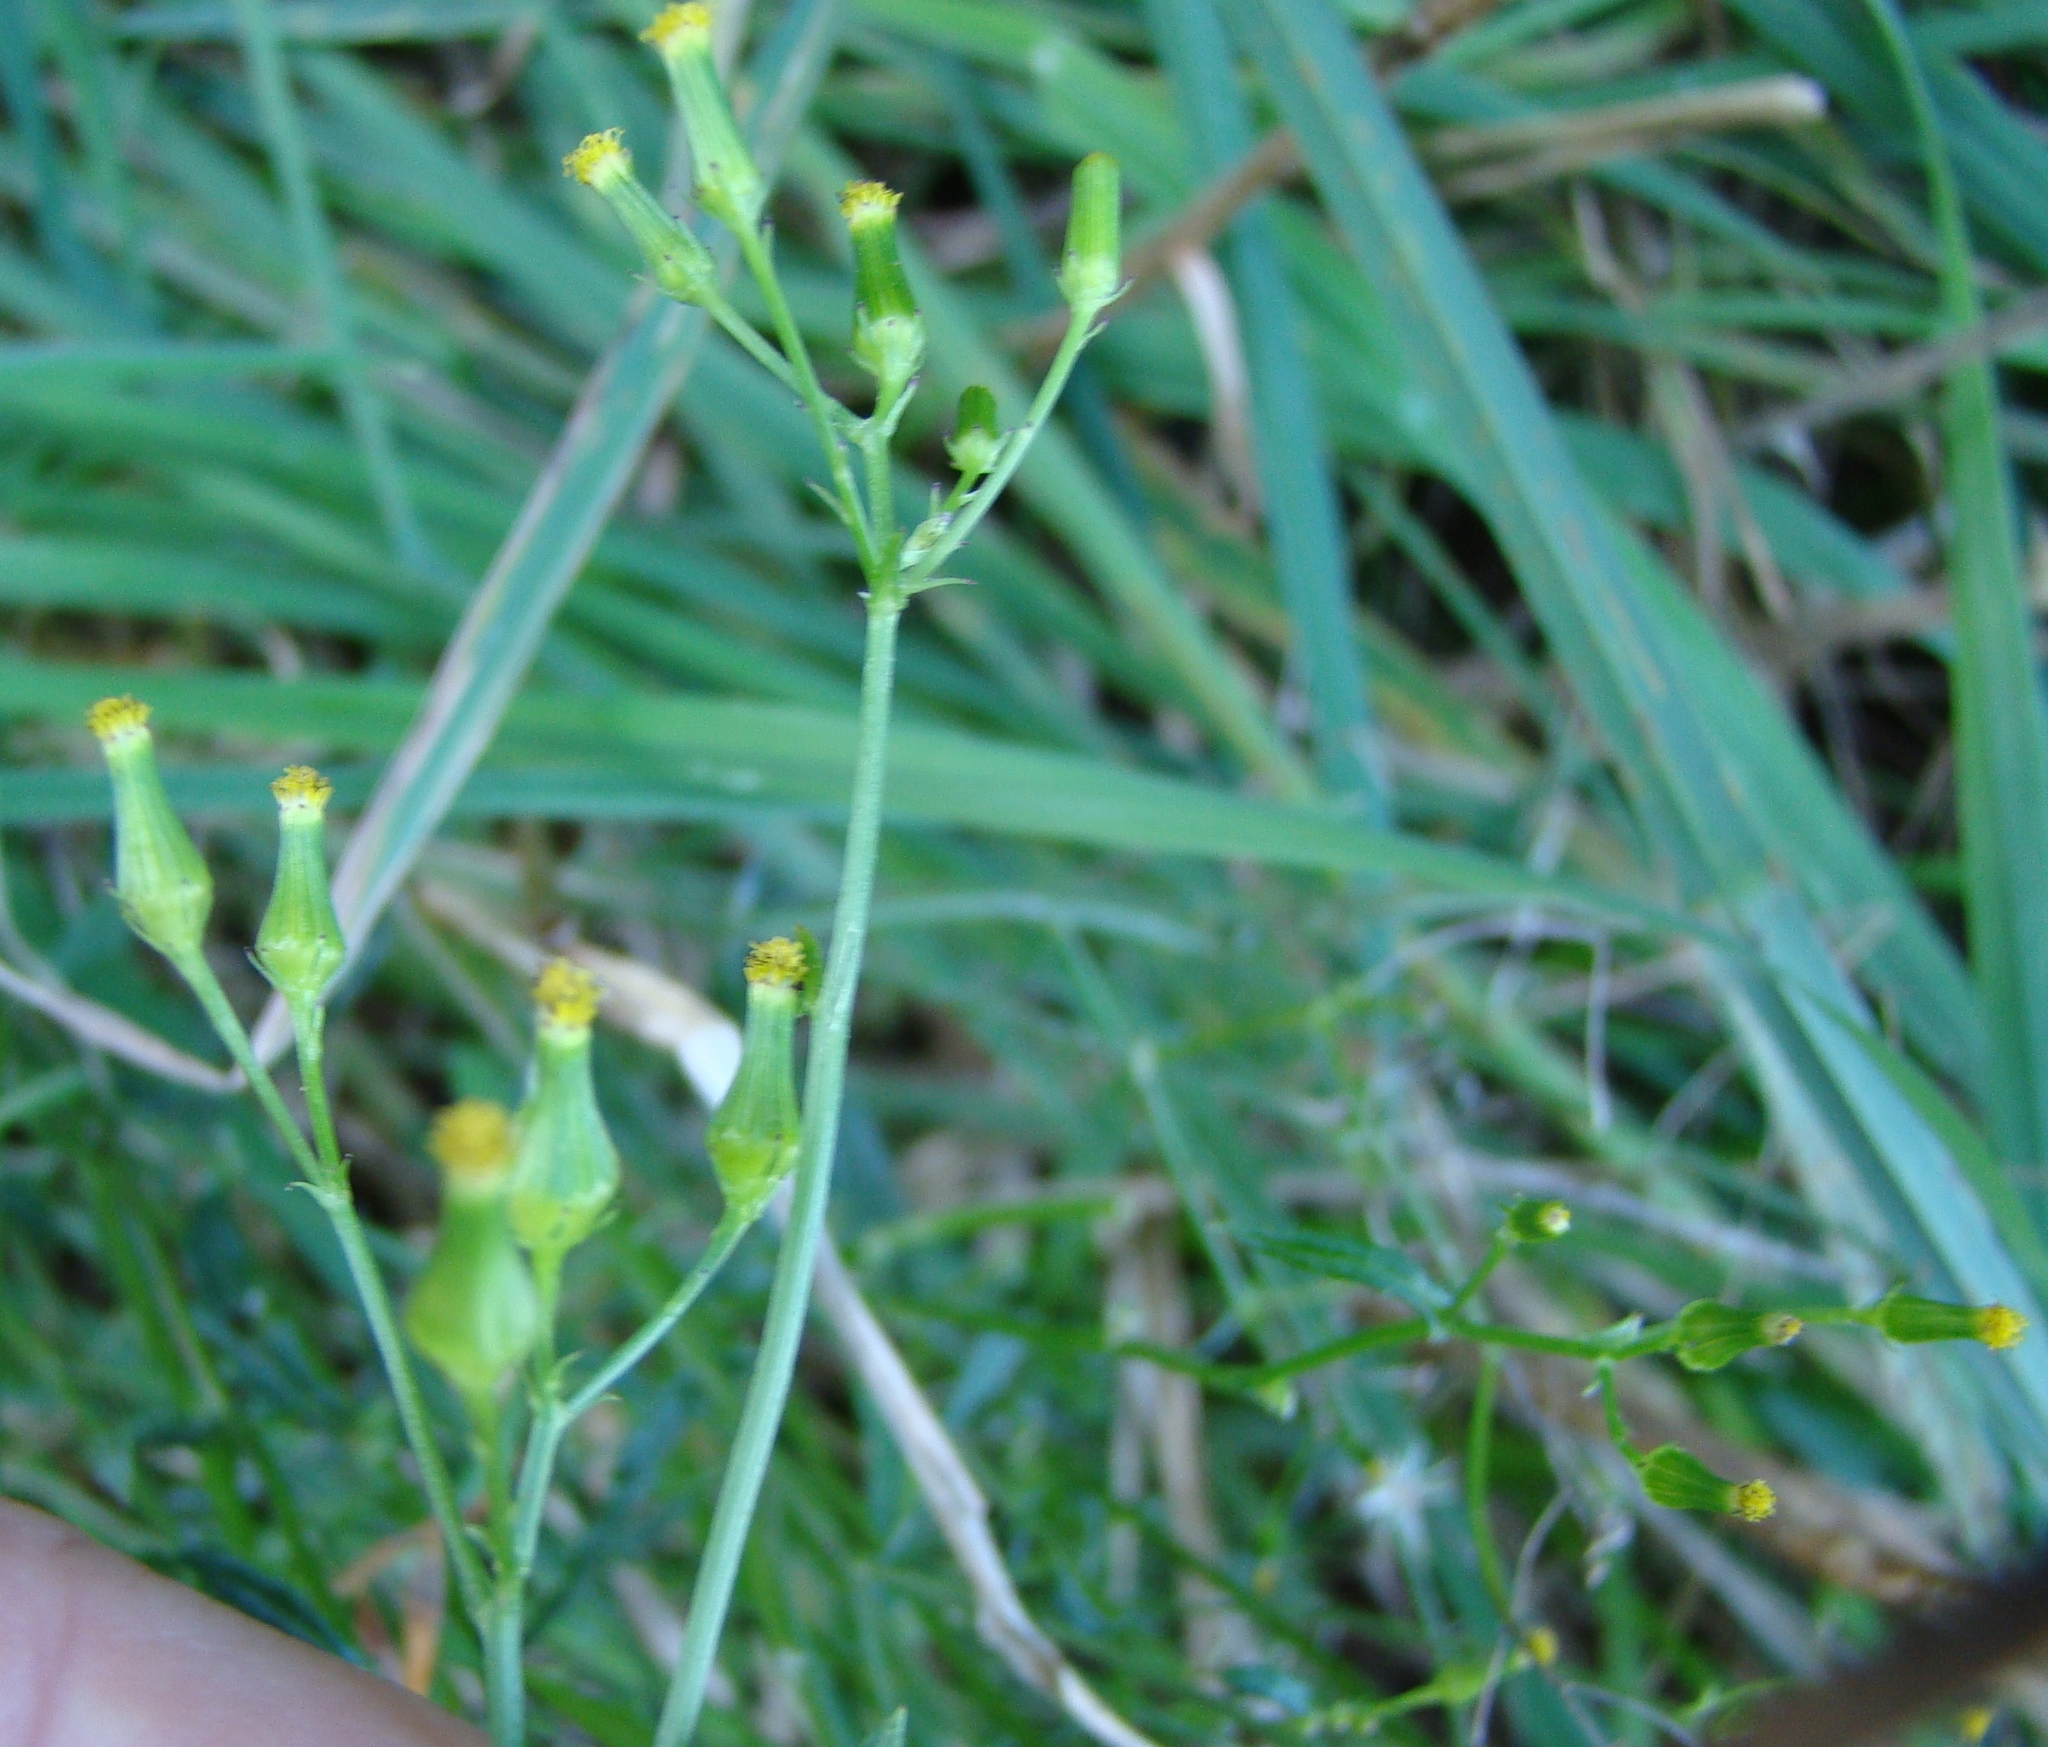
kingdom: Plantae
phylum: Tracheophyta
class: Magnoliopsida
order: Asterales
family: Asteraceae
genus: Senecio
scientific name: Senecio hispidulus
